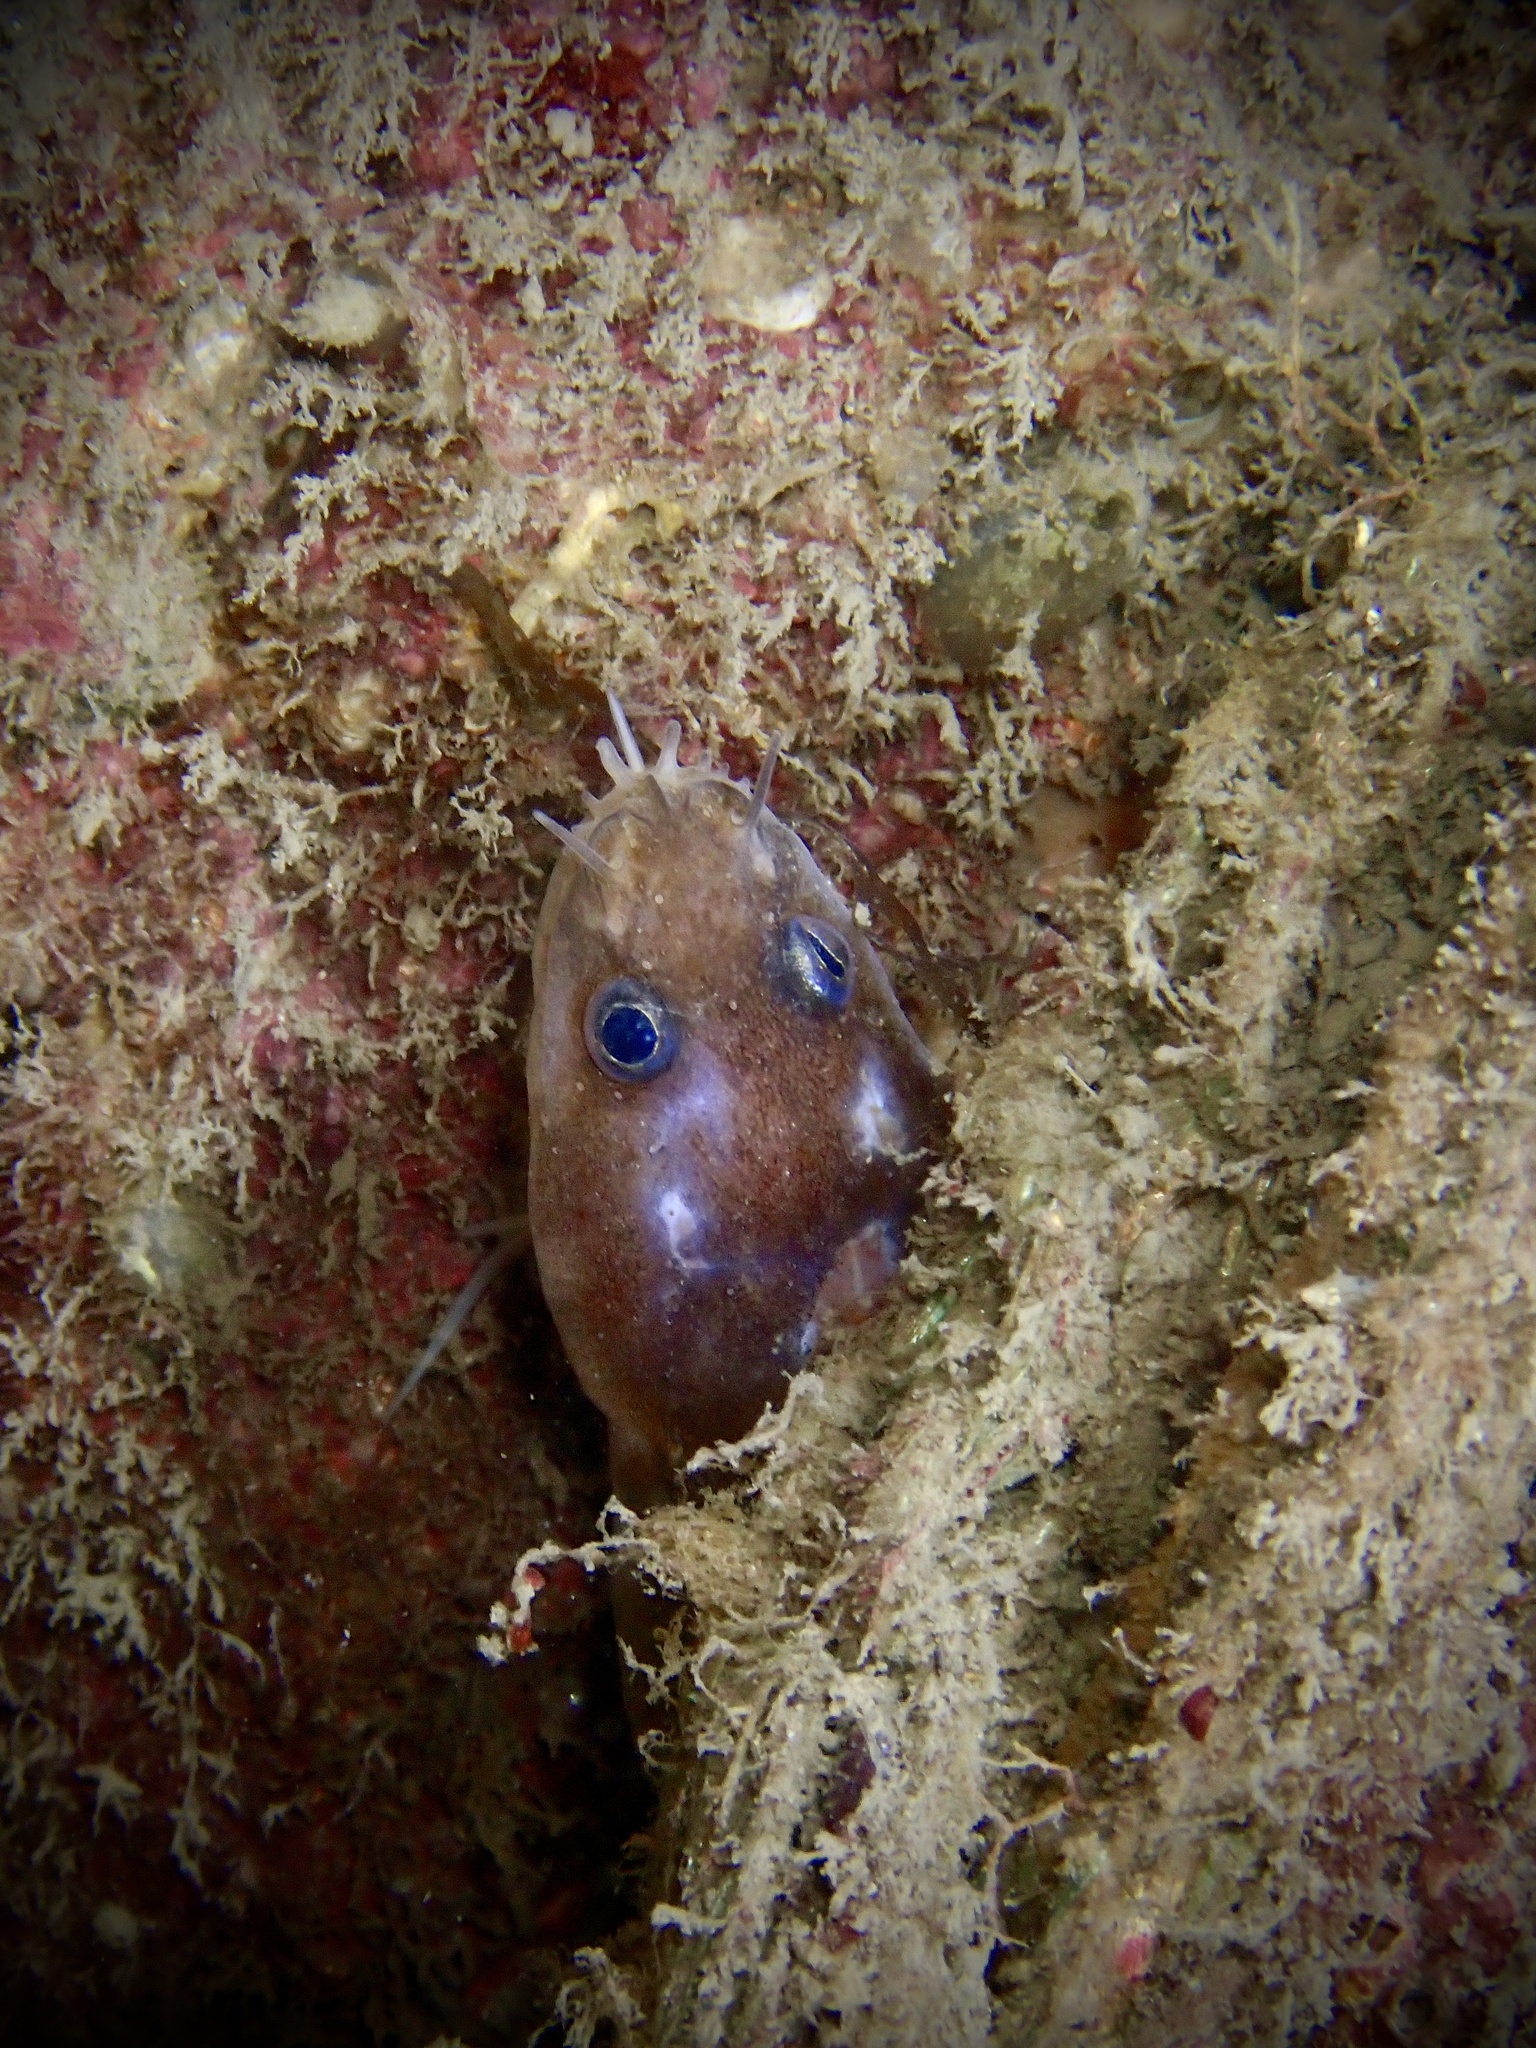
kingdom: Animalia
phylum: Chordata
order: Gadiformes
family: Lotidae
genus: Ciliata
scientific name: Ciliata septentrionalis
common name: Northern rockling
